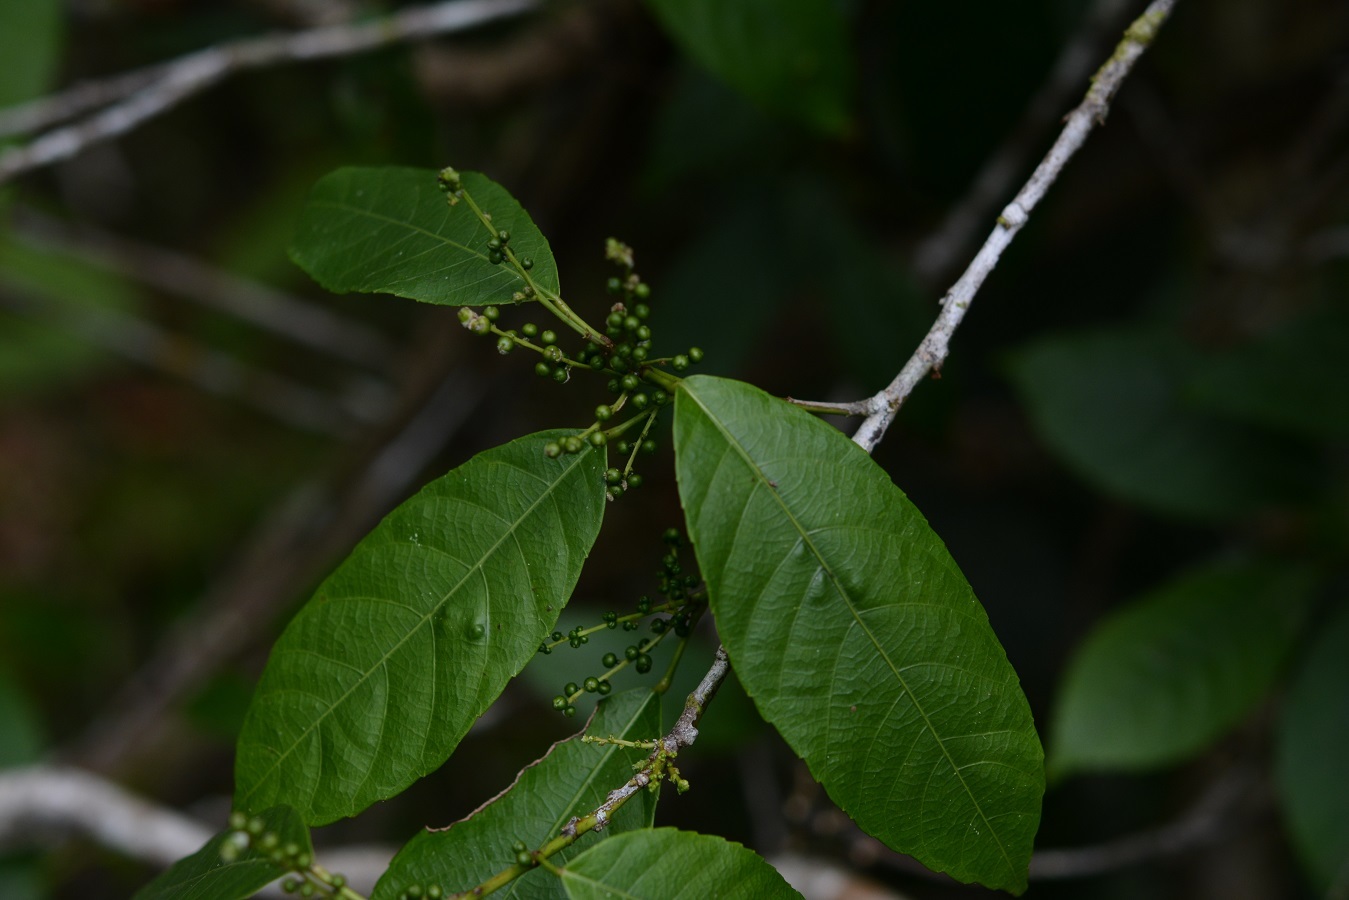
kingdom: Plantae
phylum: Tracheophyta
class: Magnoliopsida
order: Malpighiales
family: Euphorbiaceae
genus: Cleidion
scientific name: Cleidion castaneifolium
